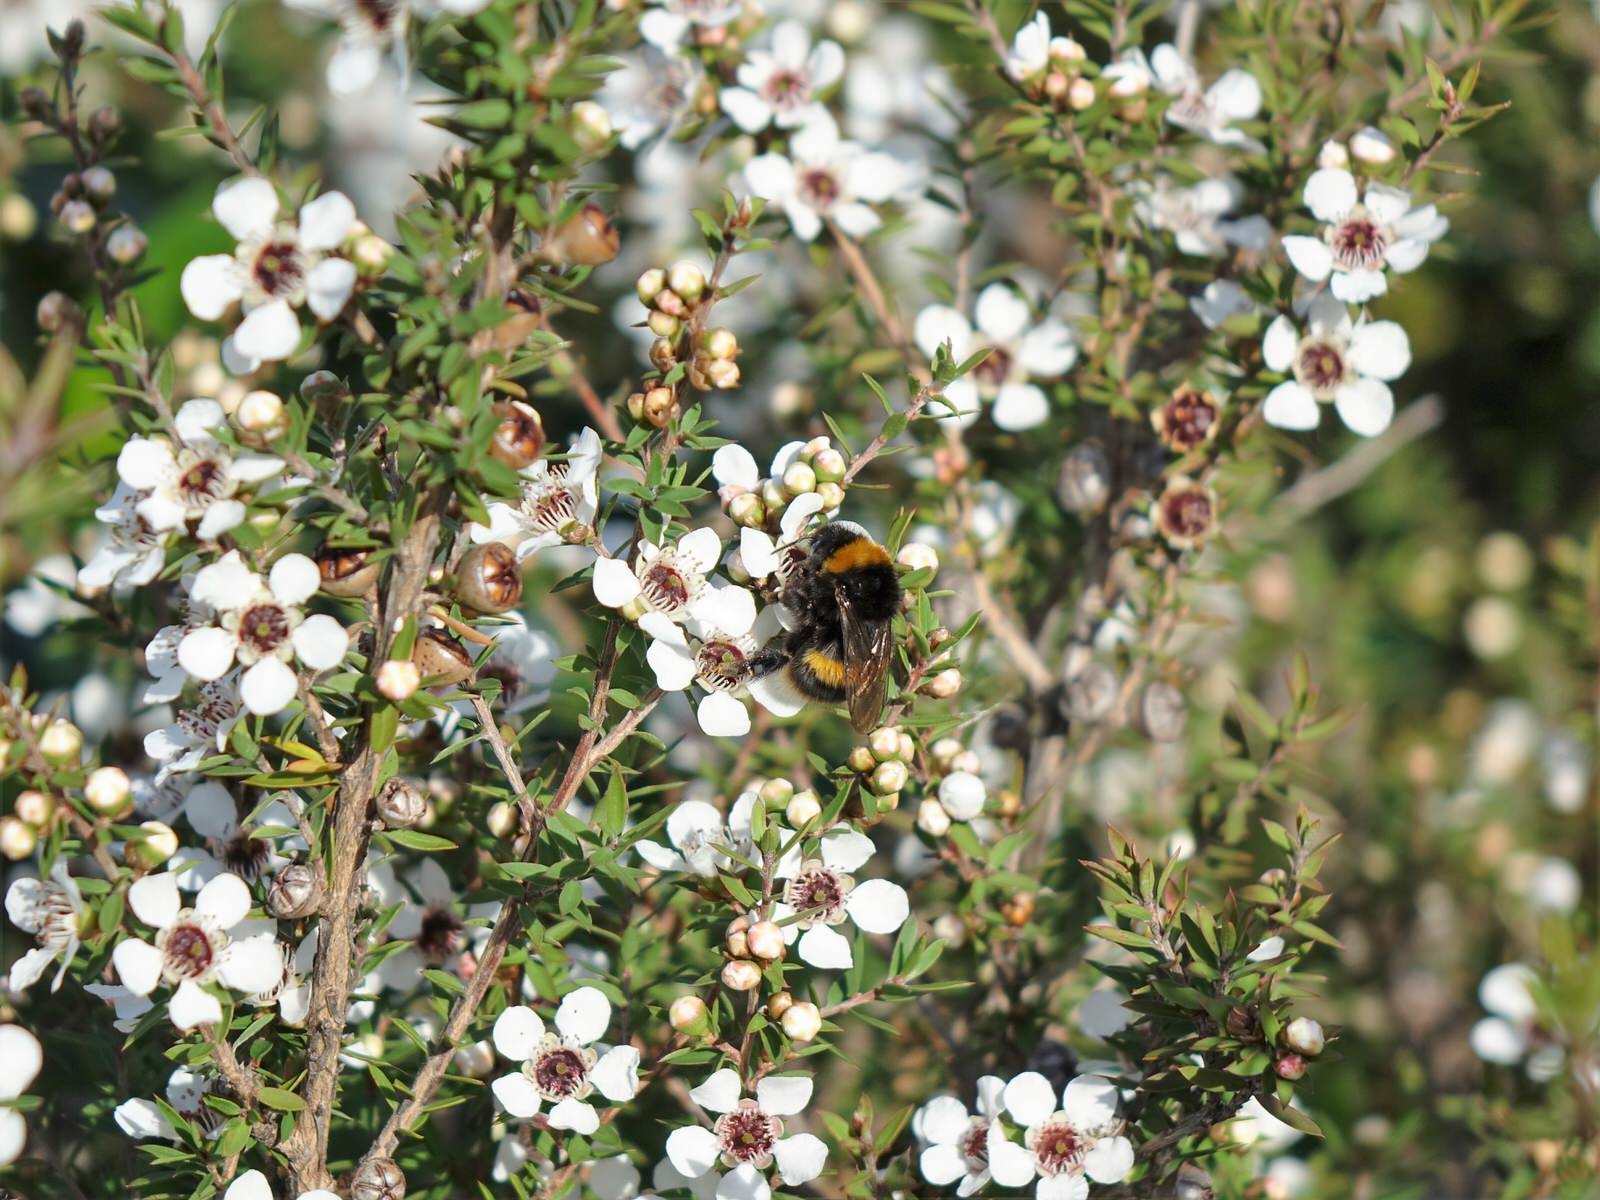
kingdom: Animalia
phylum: Arthropoda
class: Insecta
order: Hymenoptera
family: Apidae
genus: Bombus
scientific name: Bombus terrestris
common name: Buff-tailed bumblebee
